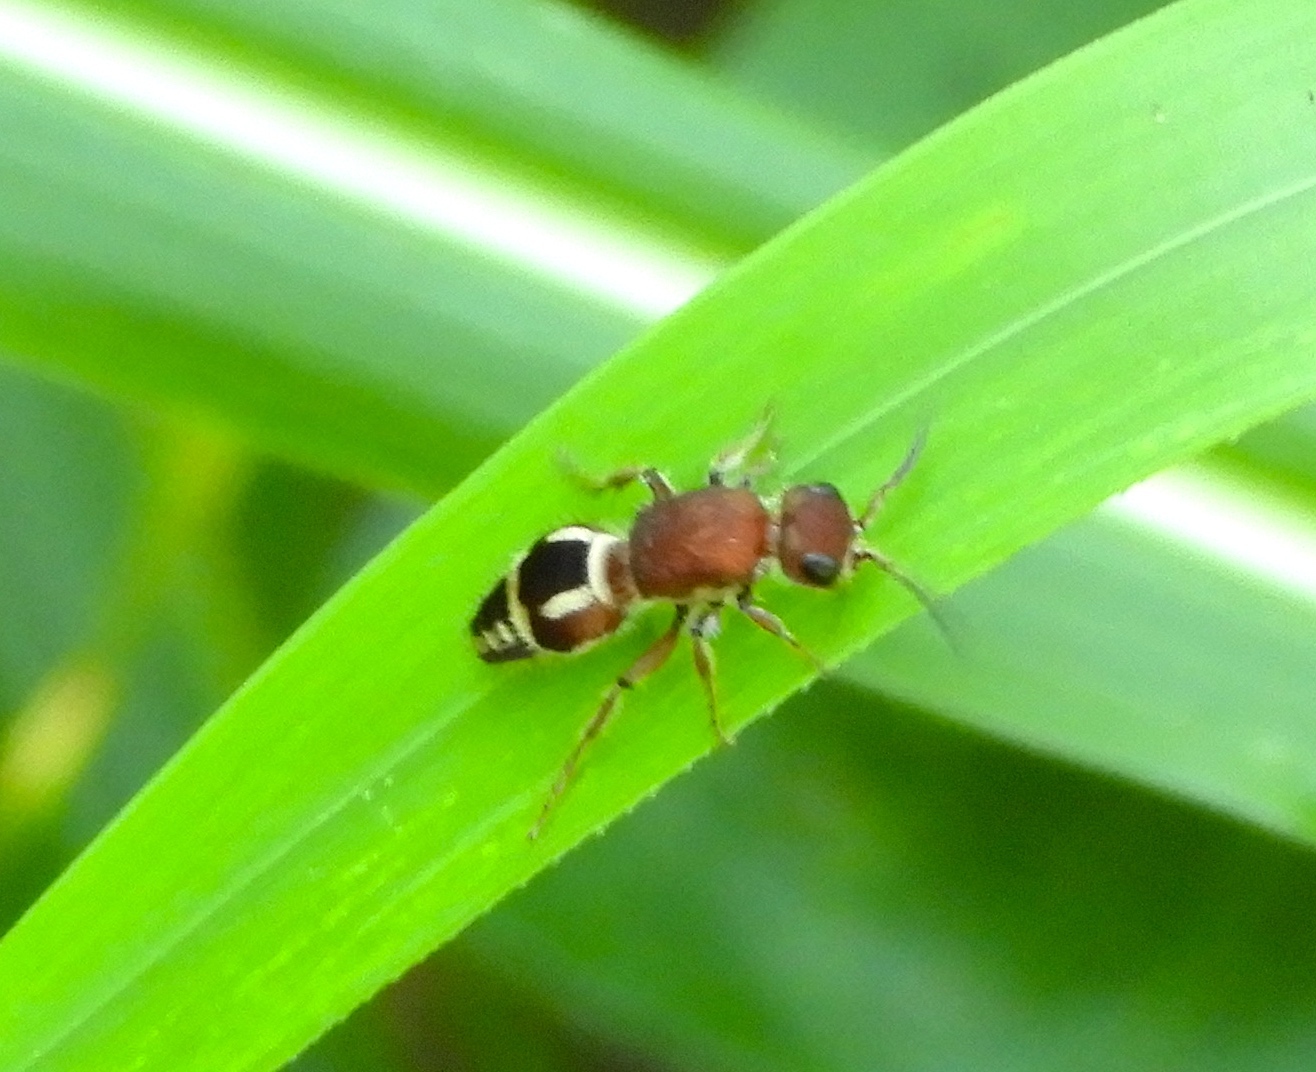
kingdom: Animalia
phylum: Arthropoda
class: Insecta
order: Hymenoptera
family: Mutillidae
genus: Timulla
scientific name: Timulla
